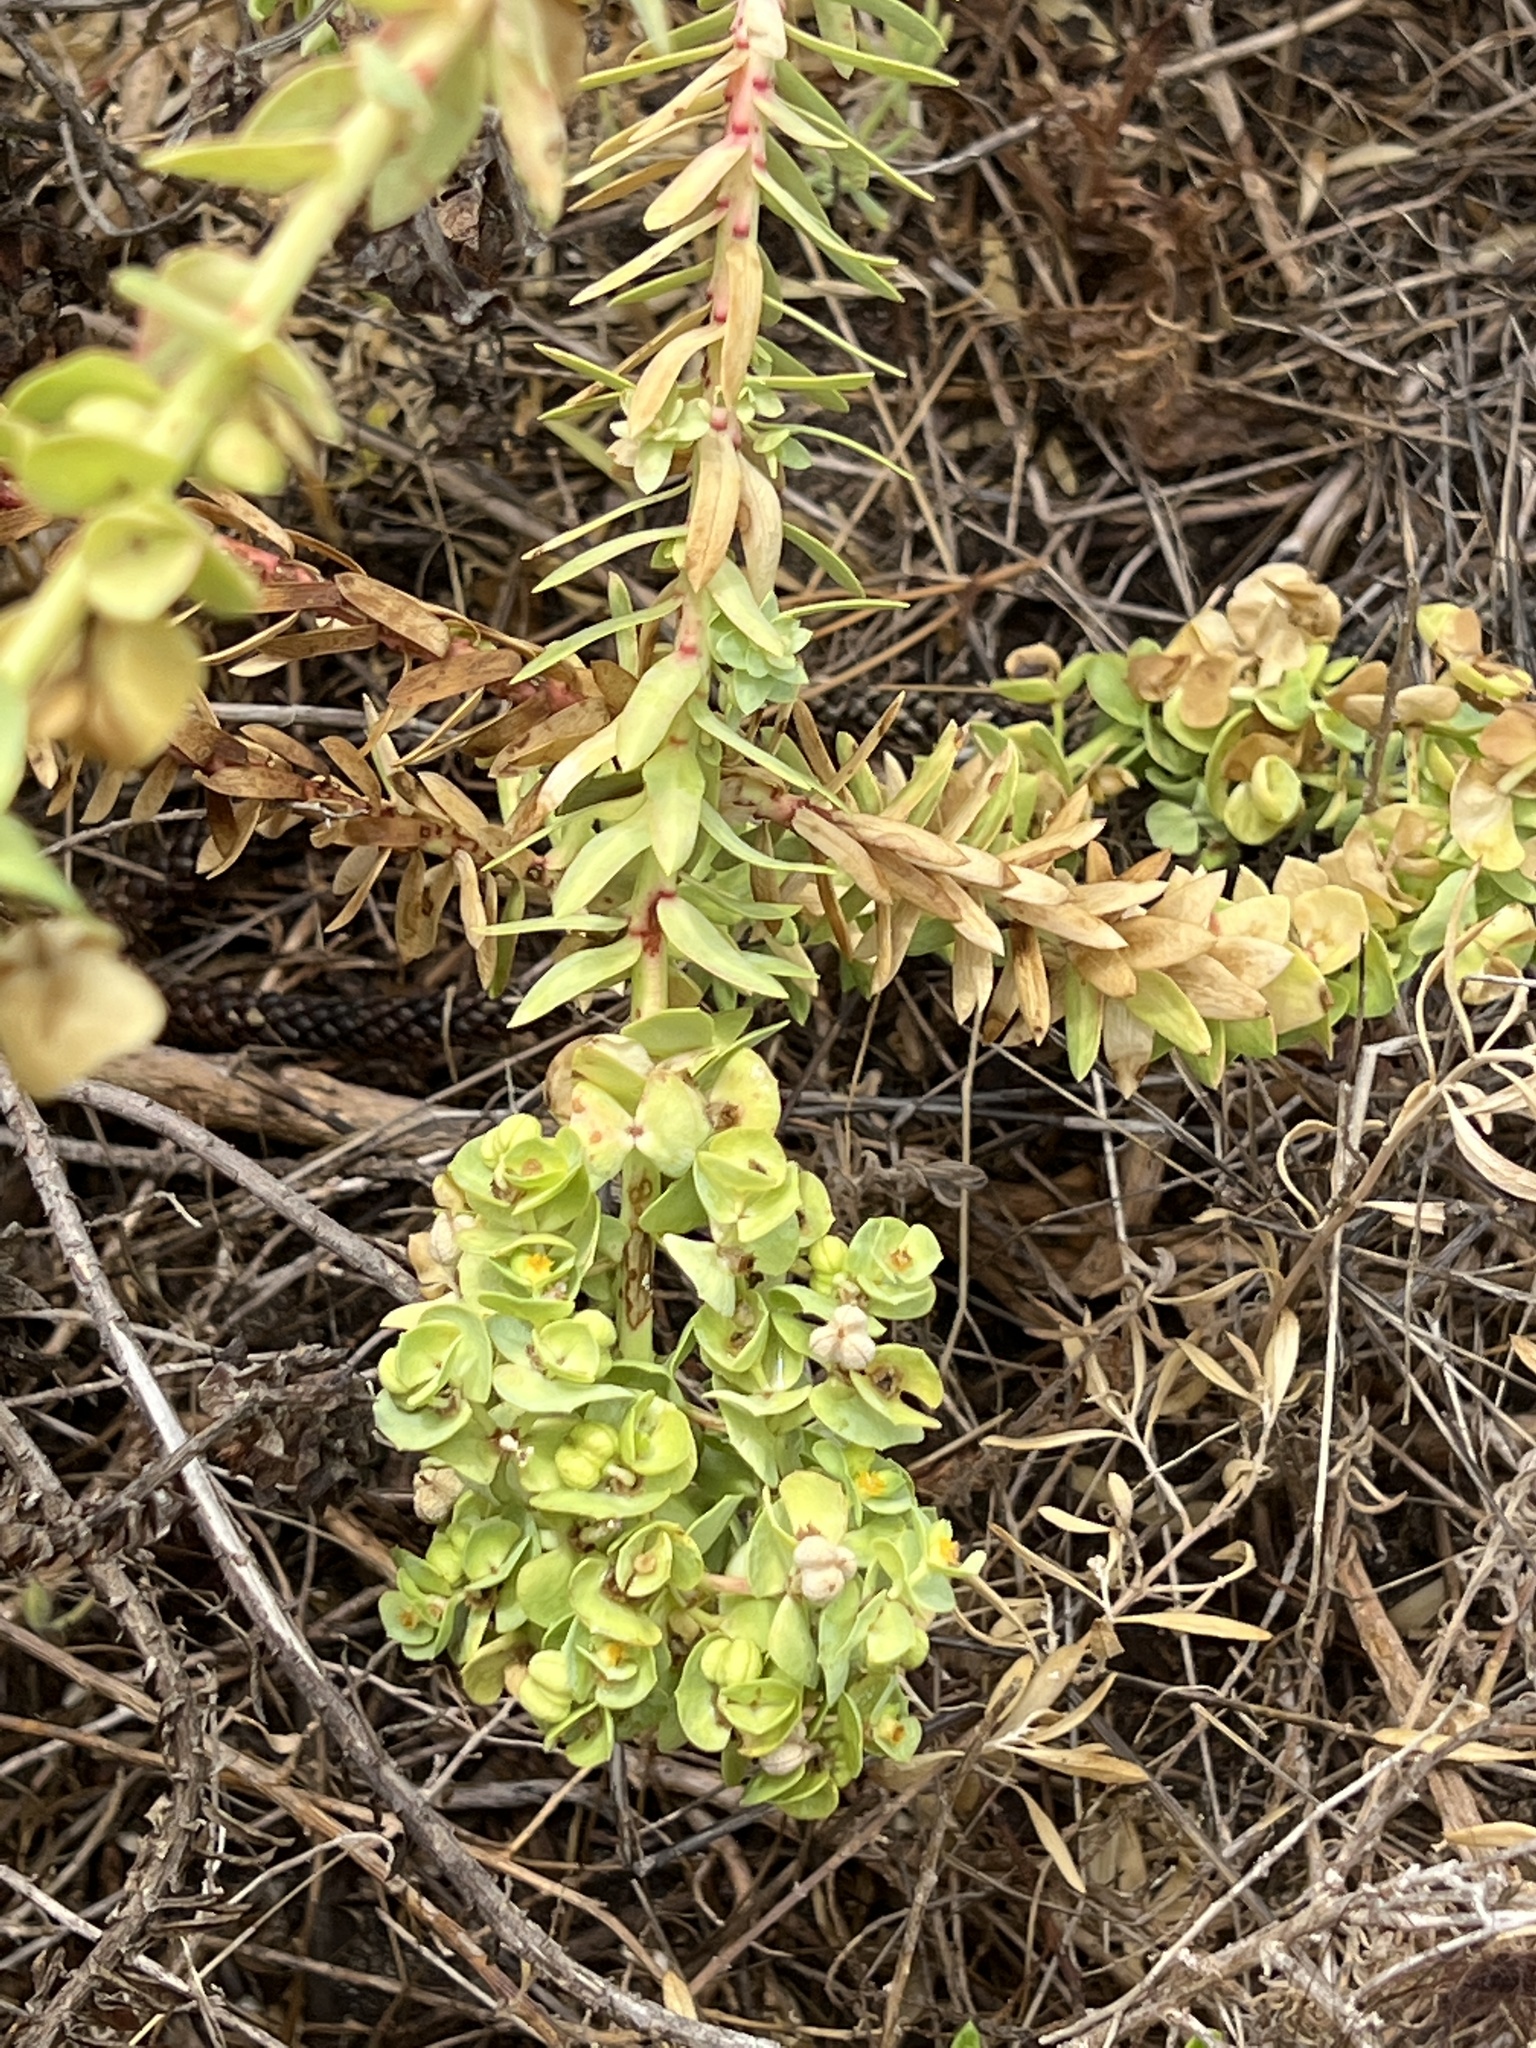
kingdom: Plantae
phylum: Tracheophyta
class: Magnoliopsida
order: Malpighiales
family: Euphorbiaceae
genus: Euphorbia
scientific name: Euphorbia paralias
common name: Sea spurge
